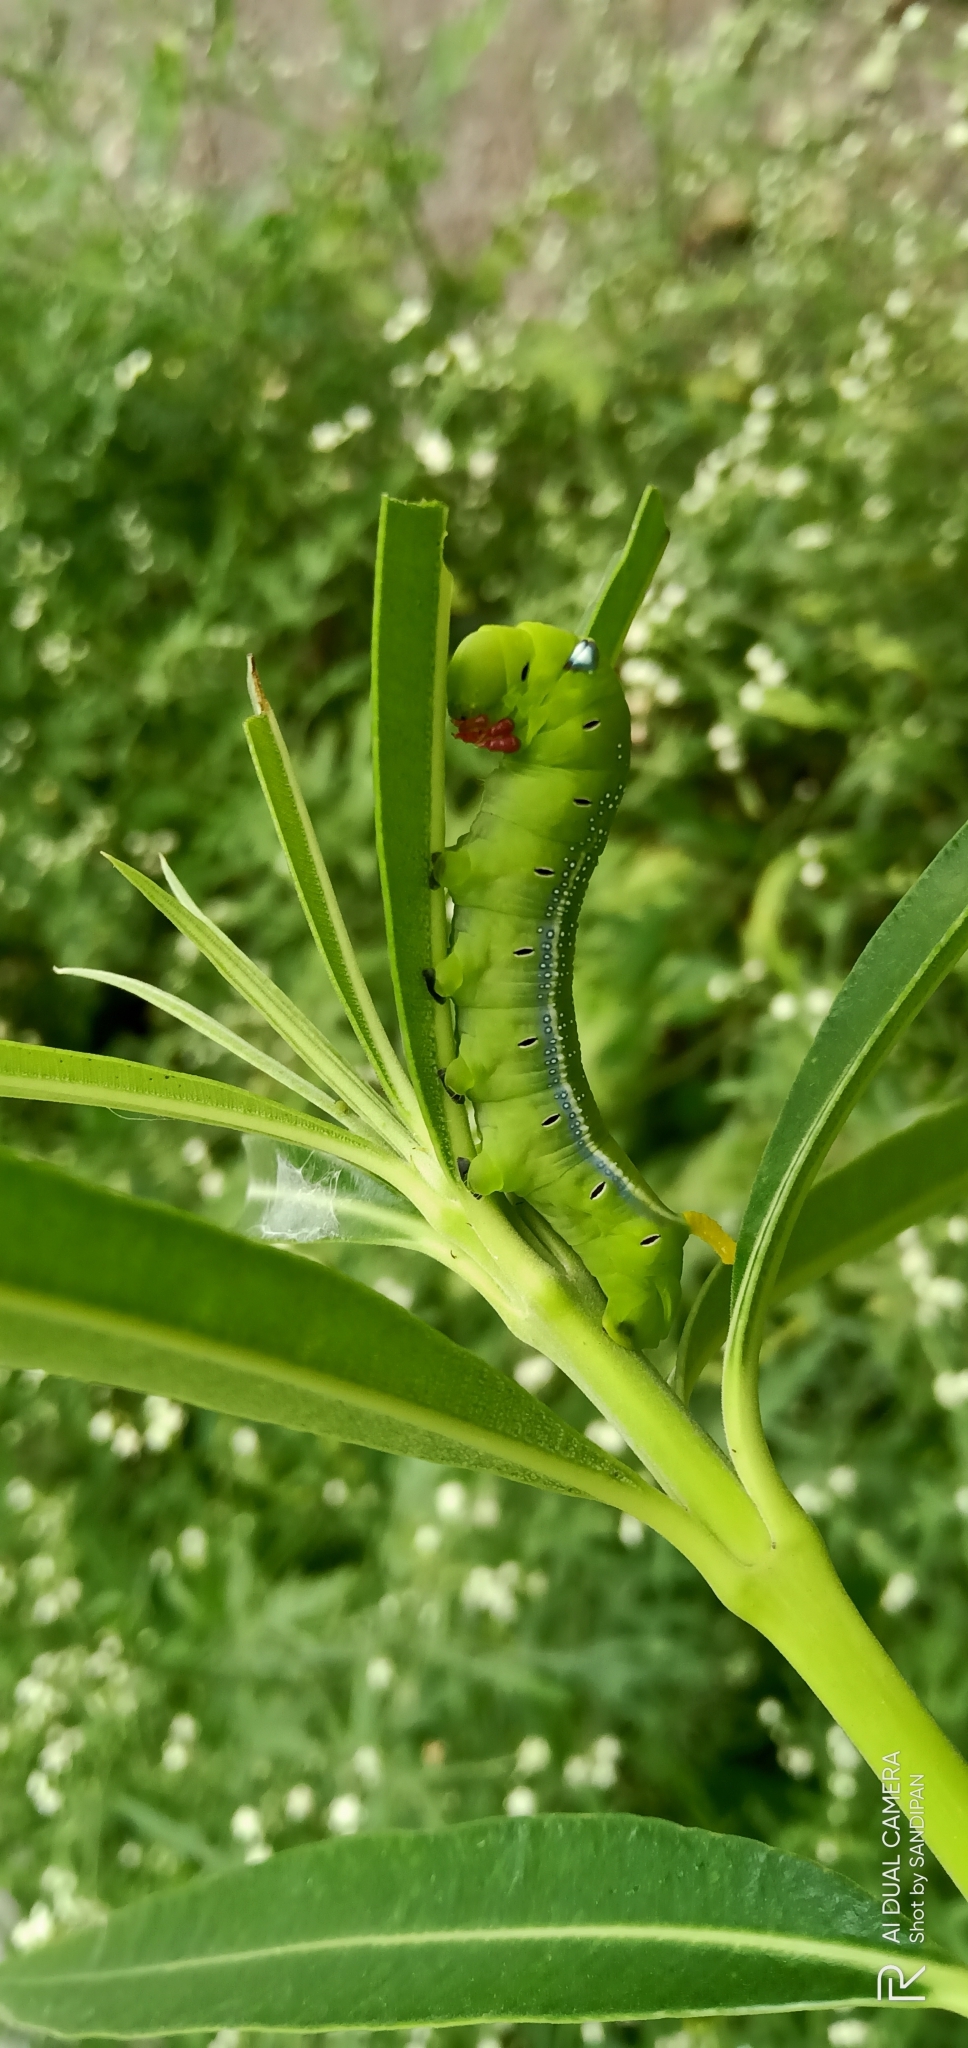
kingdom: Animalia
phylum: Arthropoda
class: Insecta
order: Lepidoptera
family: Sphingidae
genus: Daphnis
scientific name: Daphnis nerii
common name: Oleander hawk-moth
